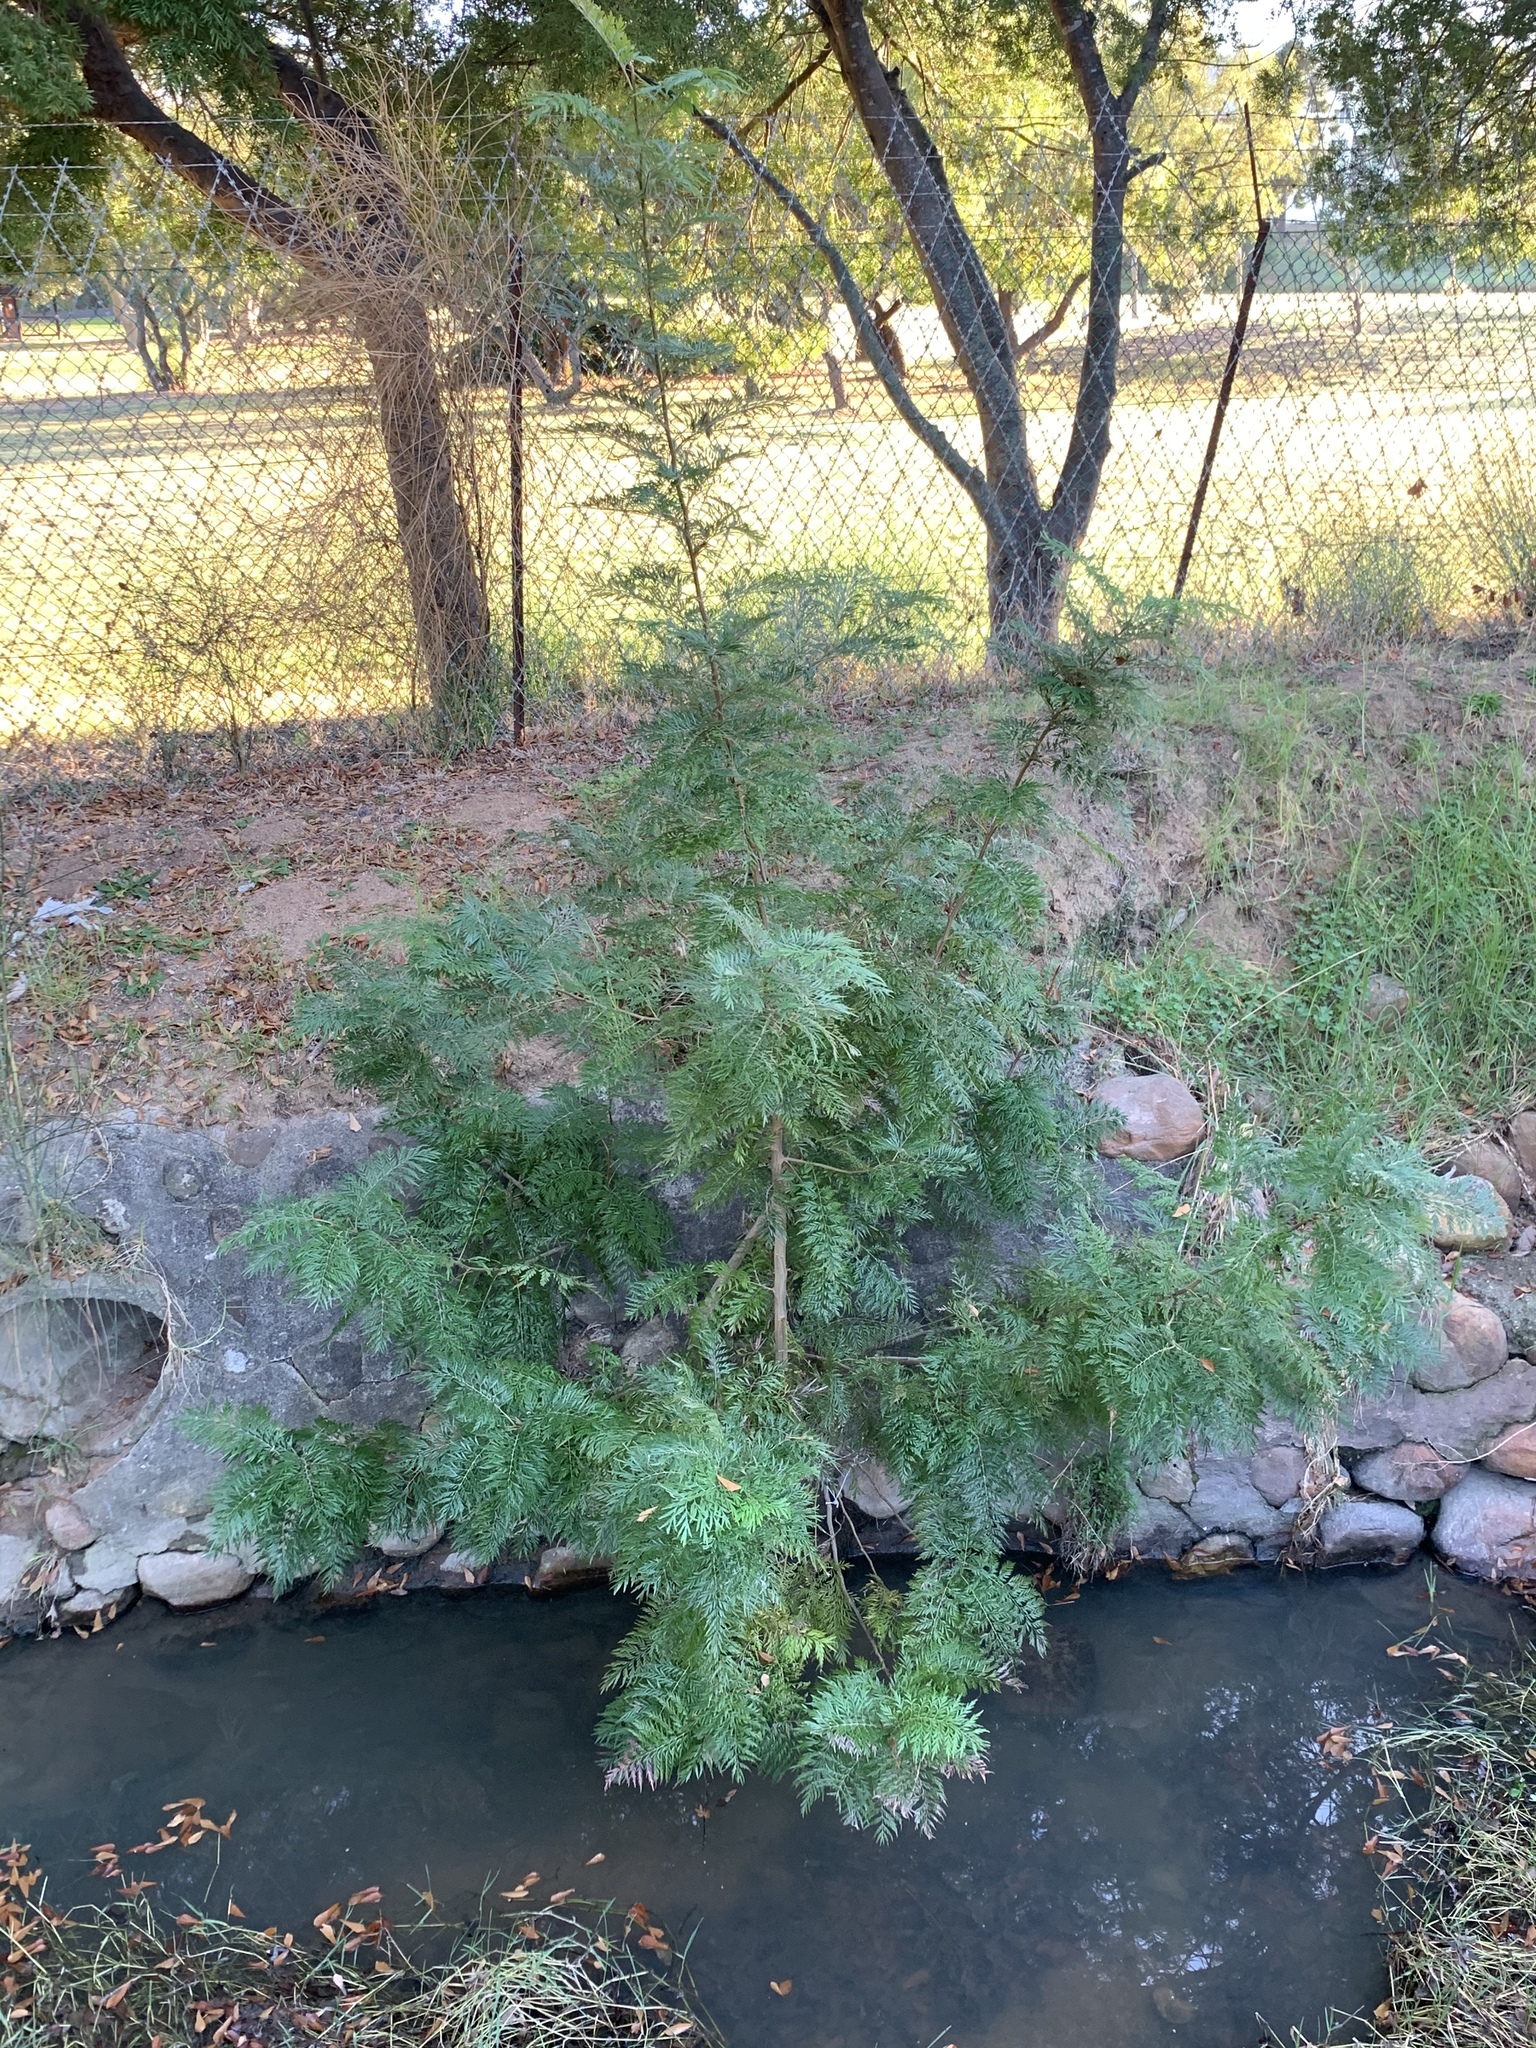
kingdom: Plantae
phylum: Tracheophyta
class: Magnoliopsida
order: Proteales
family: Proteaceae
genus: Grevillea
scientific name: Grevillea robusta
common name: Silkoak
